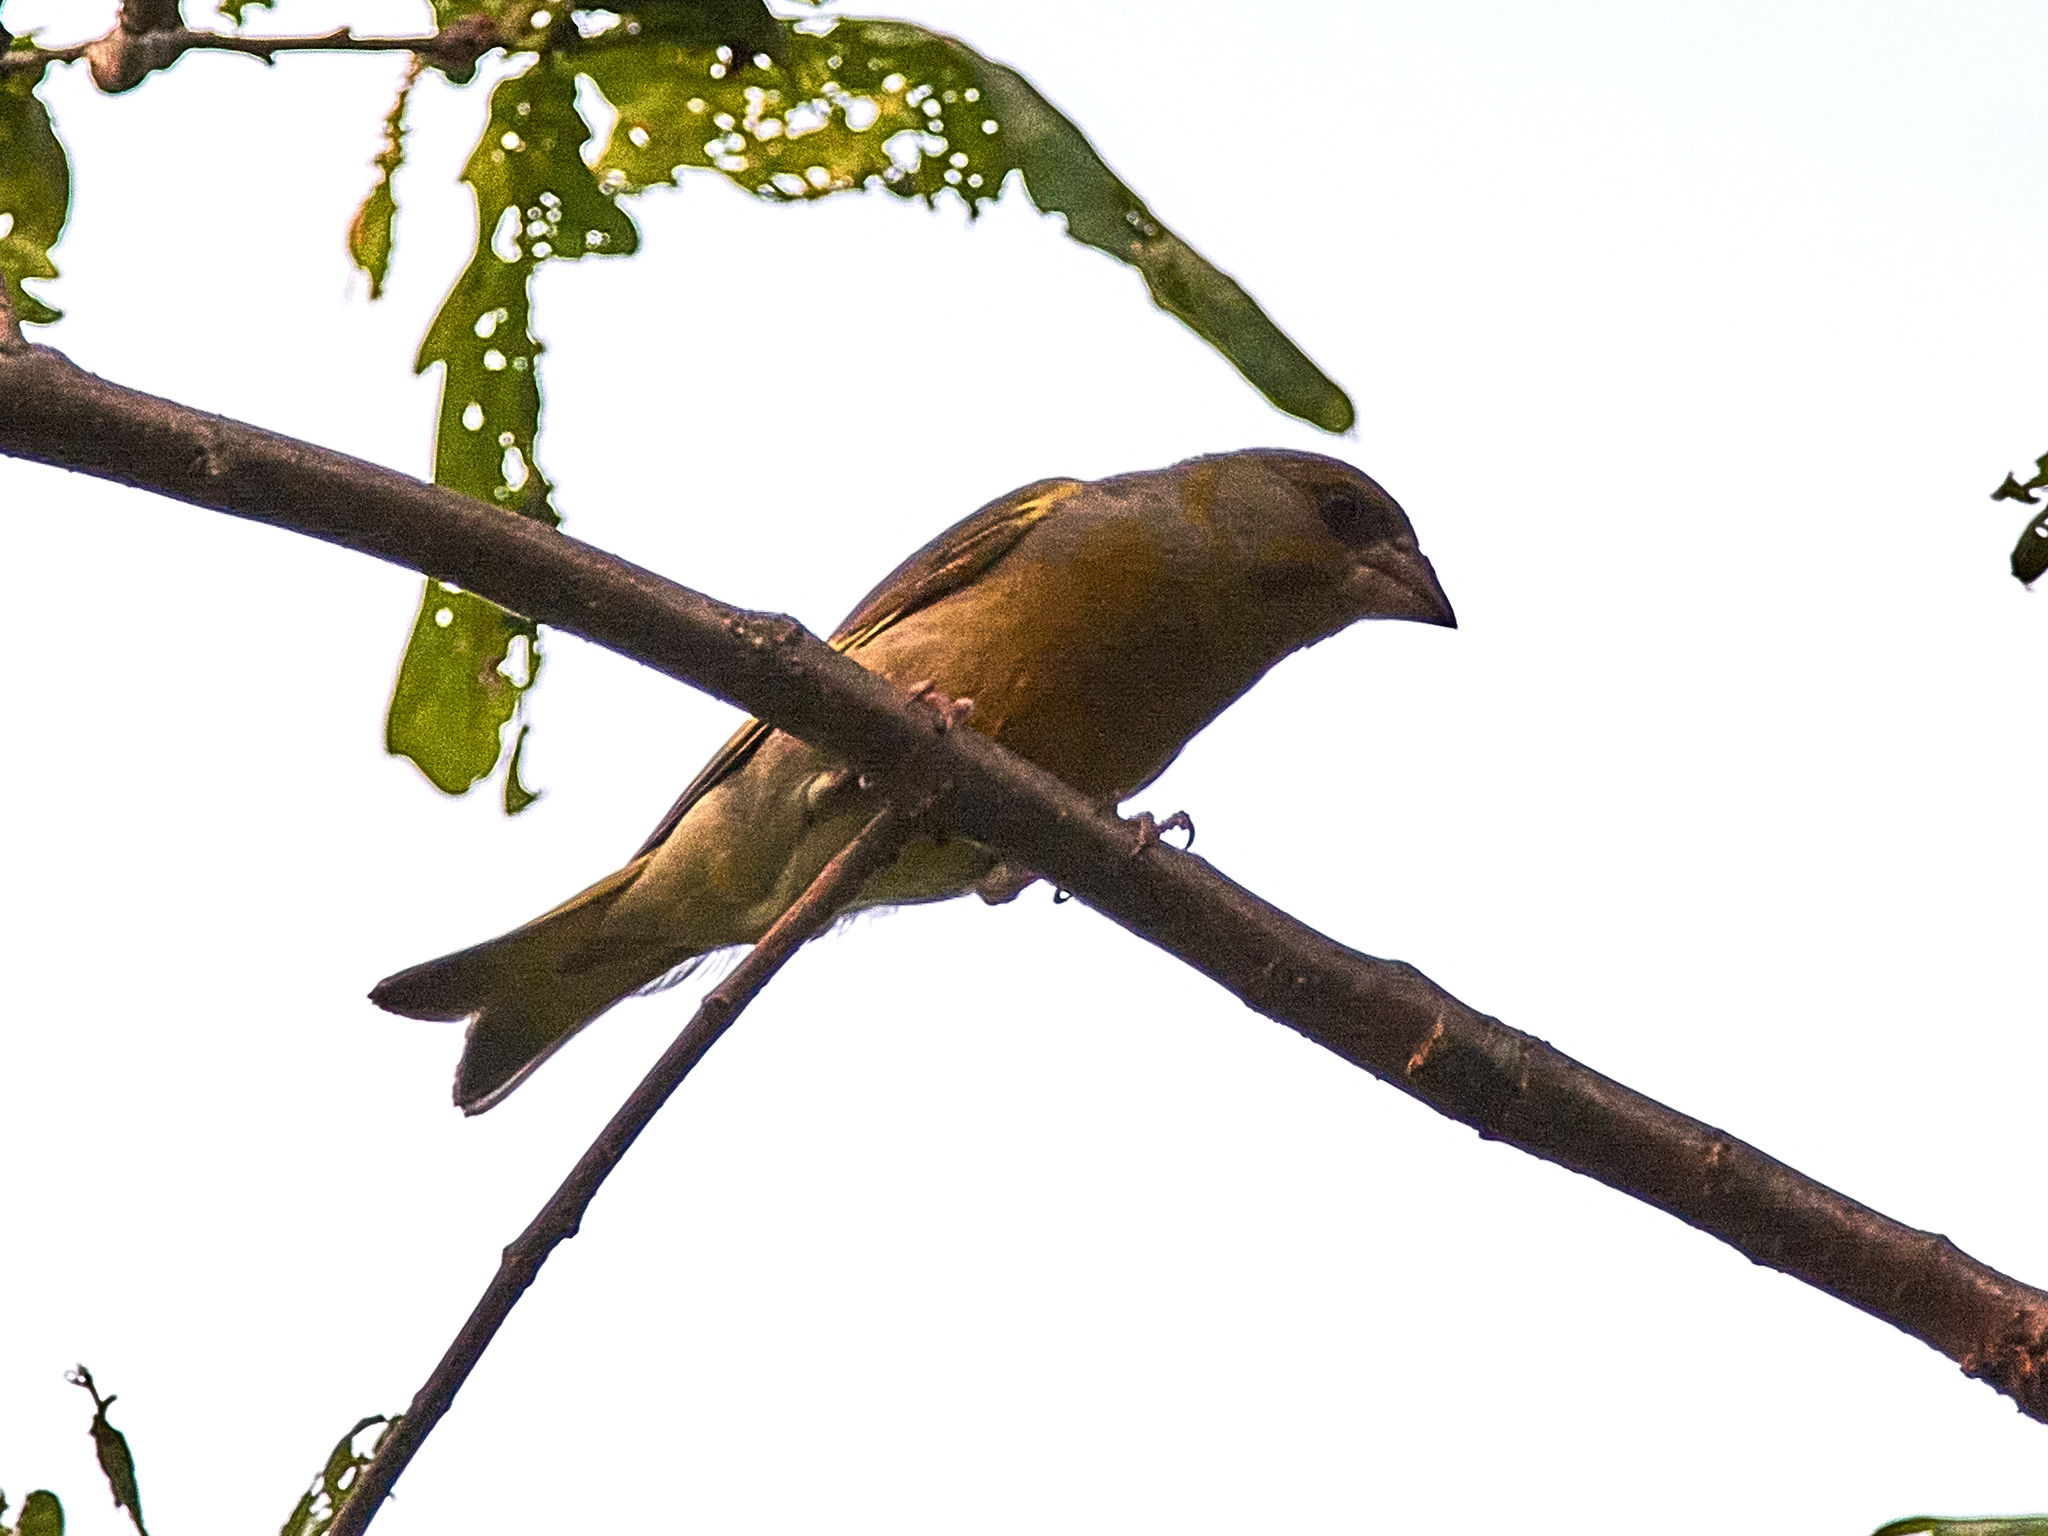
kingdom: Plantae
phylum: Tracheophyta
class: Liliopsida
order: Poales
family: Poaceae
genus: Chloris
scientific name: Chloris chloris
